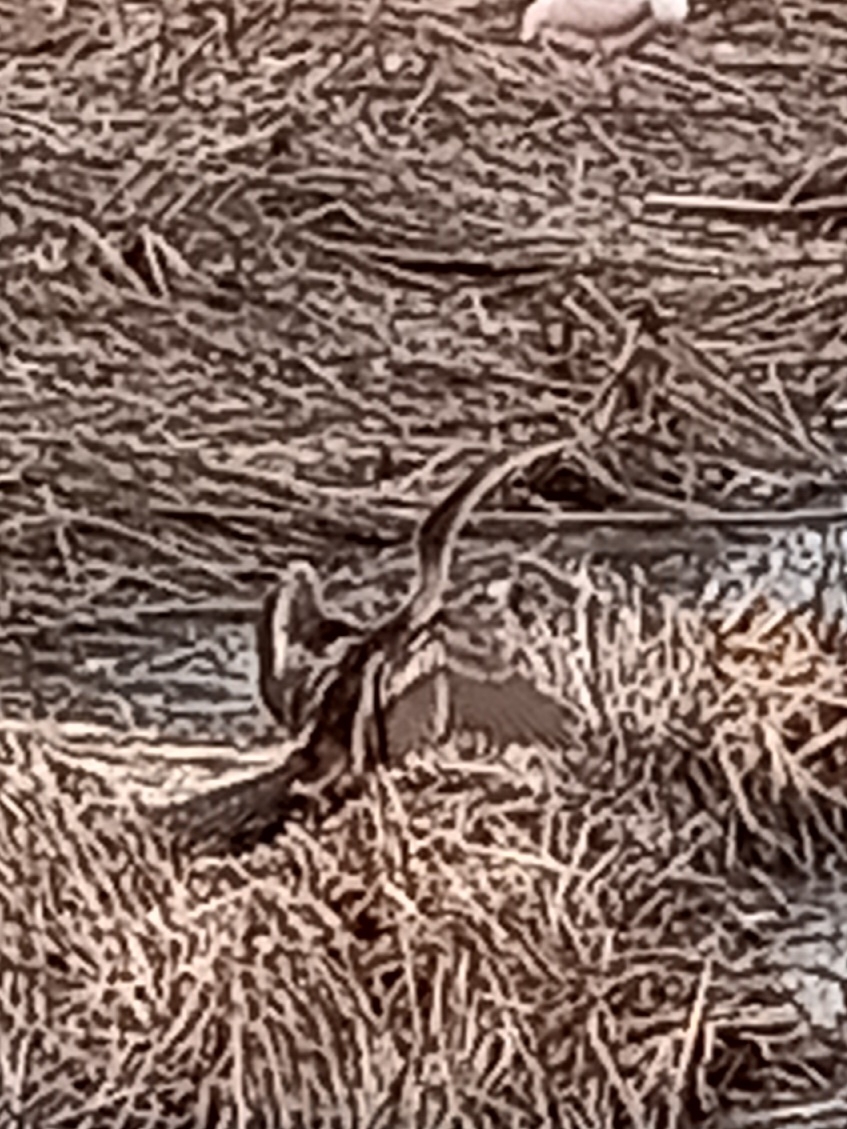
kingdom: Animalia
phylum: Chordata
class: Aves
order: Suliformes
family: Anhingidae
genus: Anhinga
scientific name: Anhinga anhinga
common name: Anhinga
